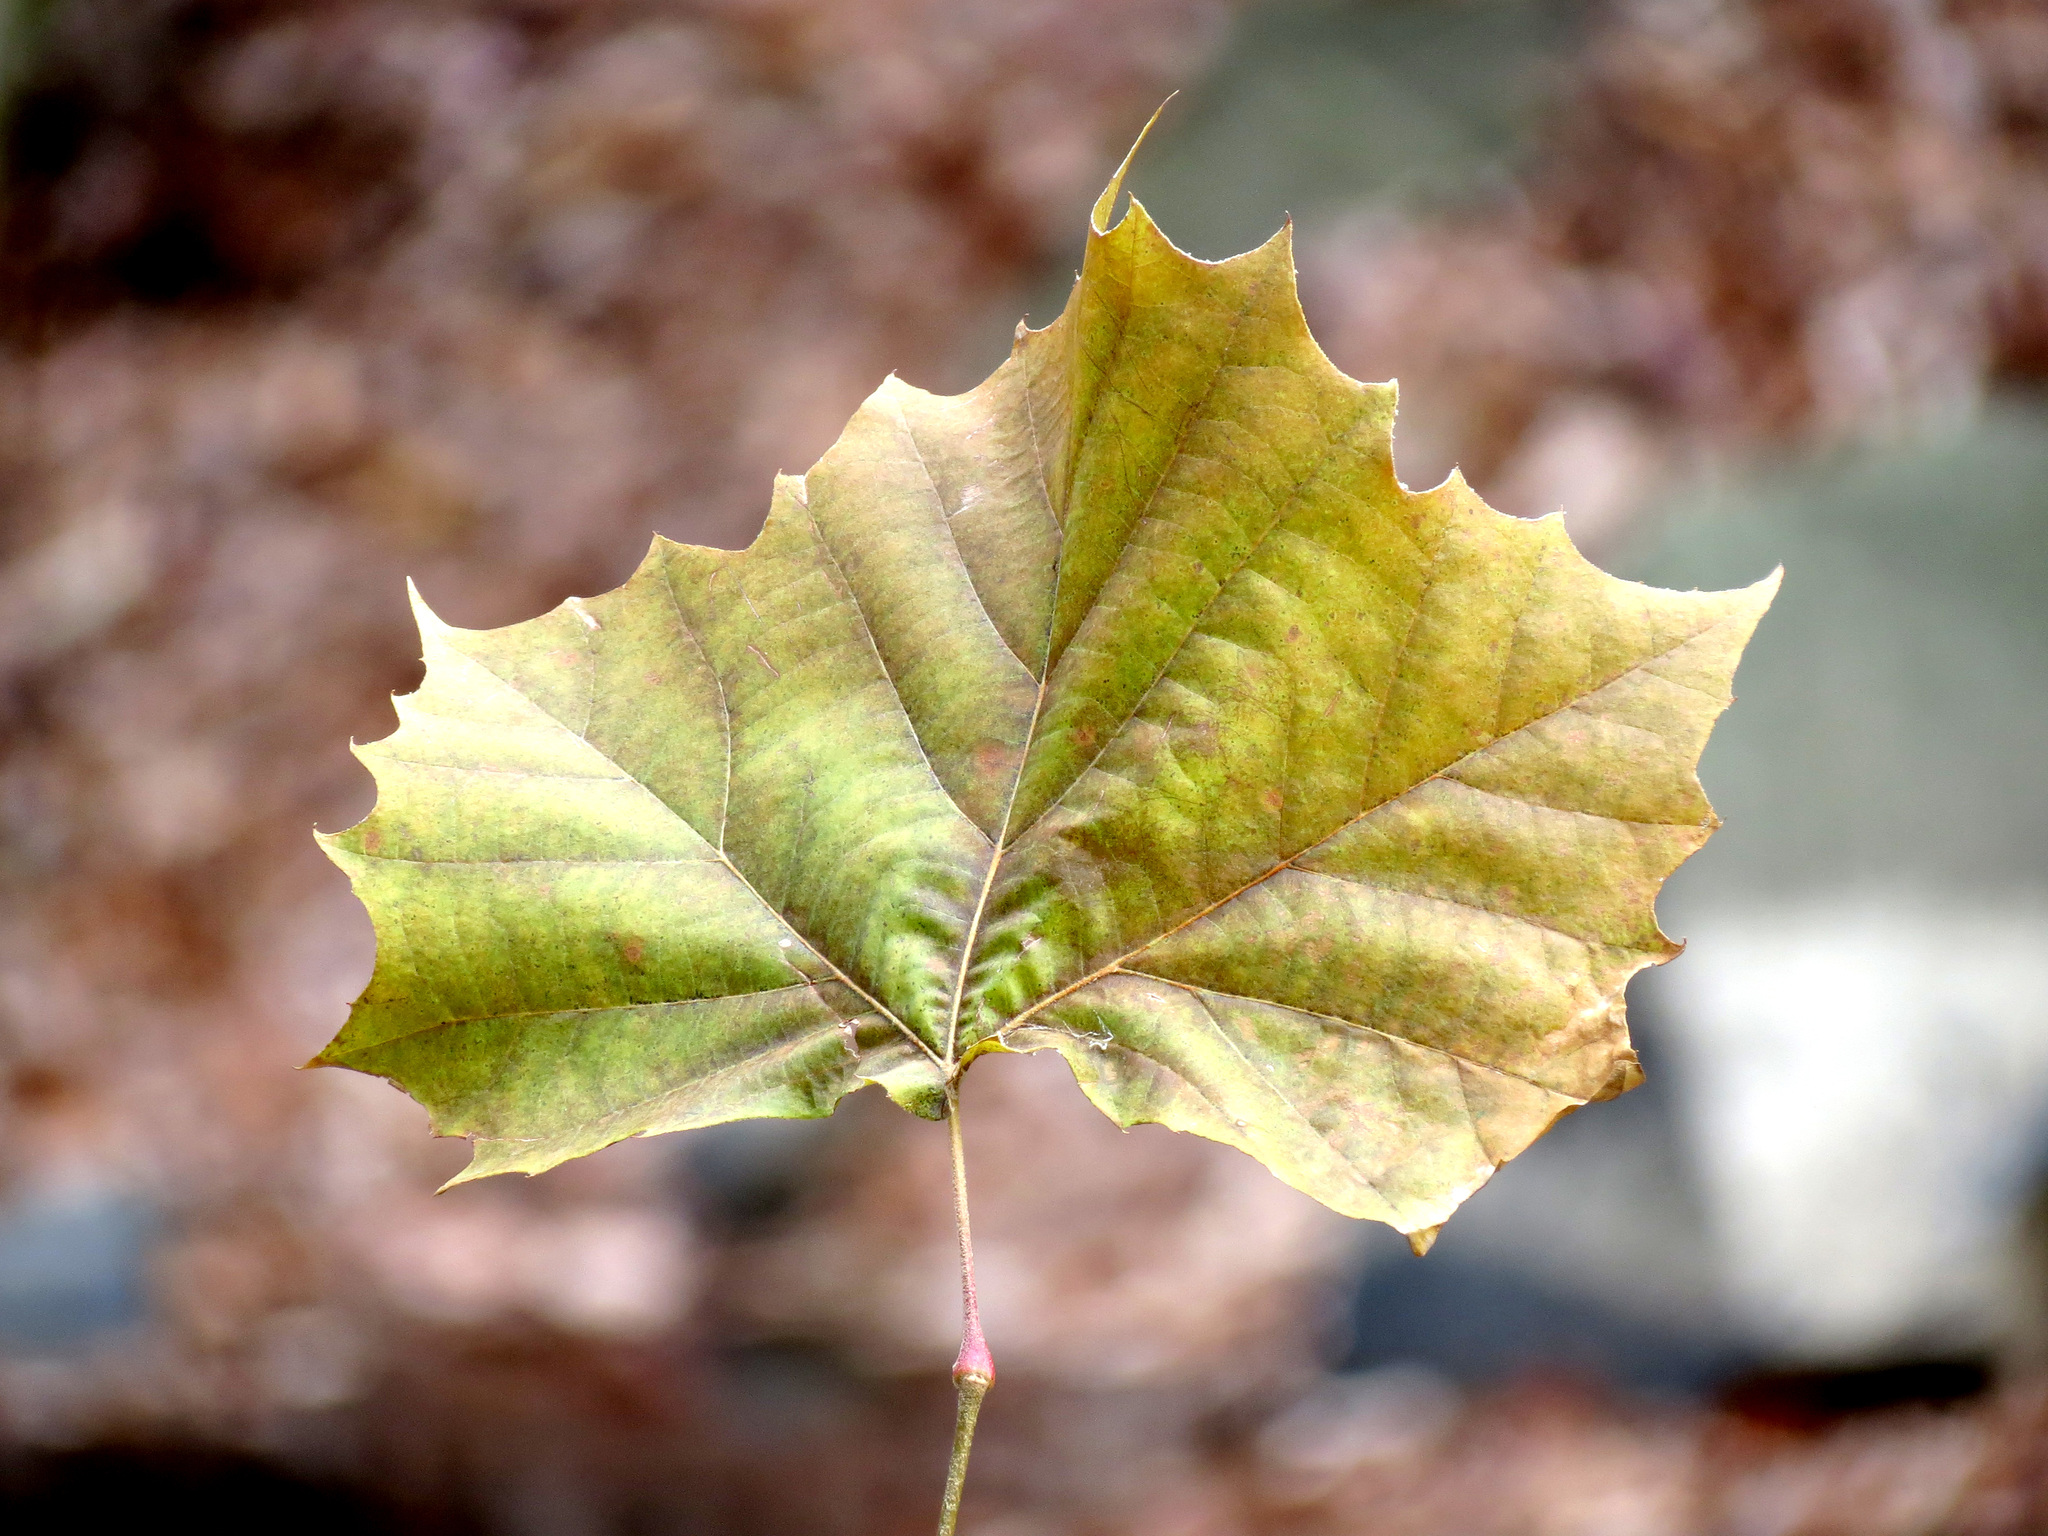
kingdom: Plantae
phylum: Tracheophyta
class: Magnoliopsida
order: Proteales
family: Platanaceae
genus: Platanus
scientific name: Platanus occidentalis
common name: American sycamore
